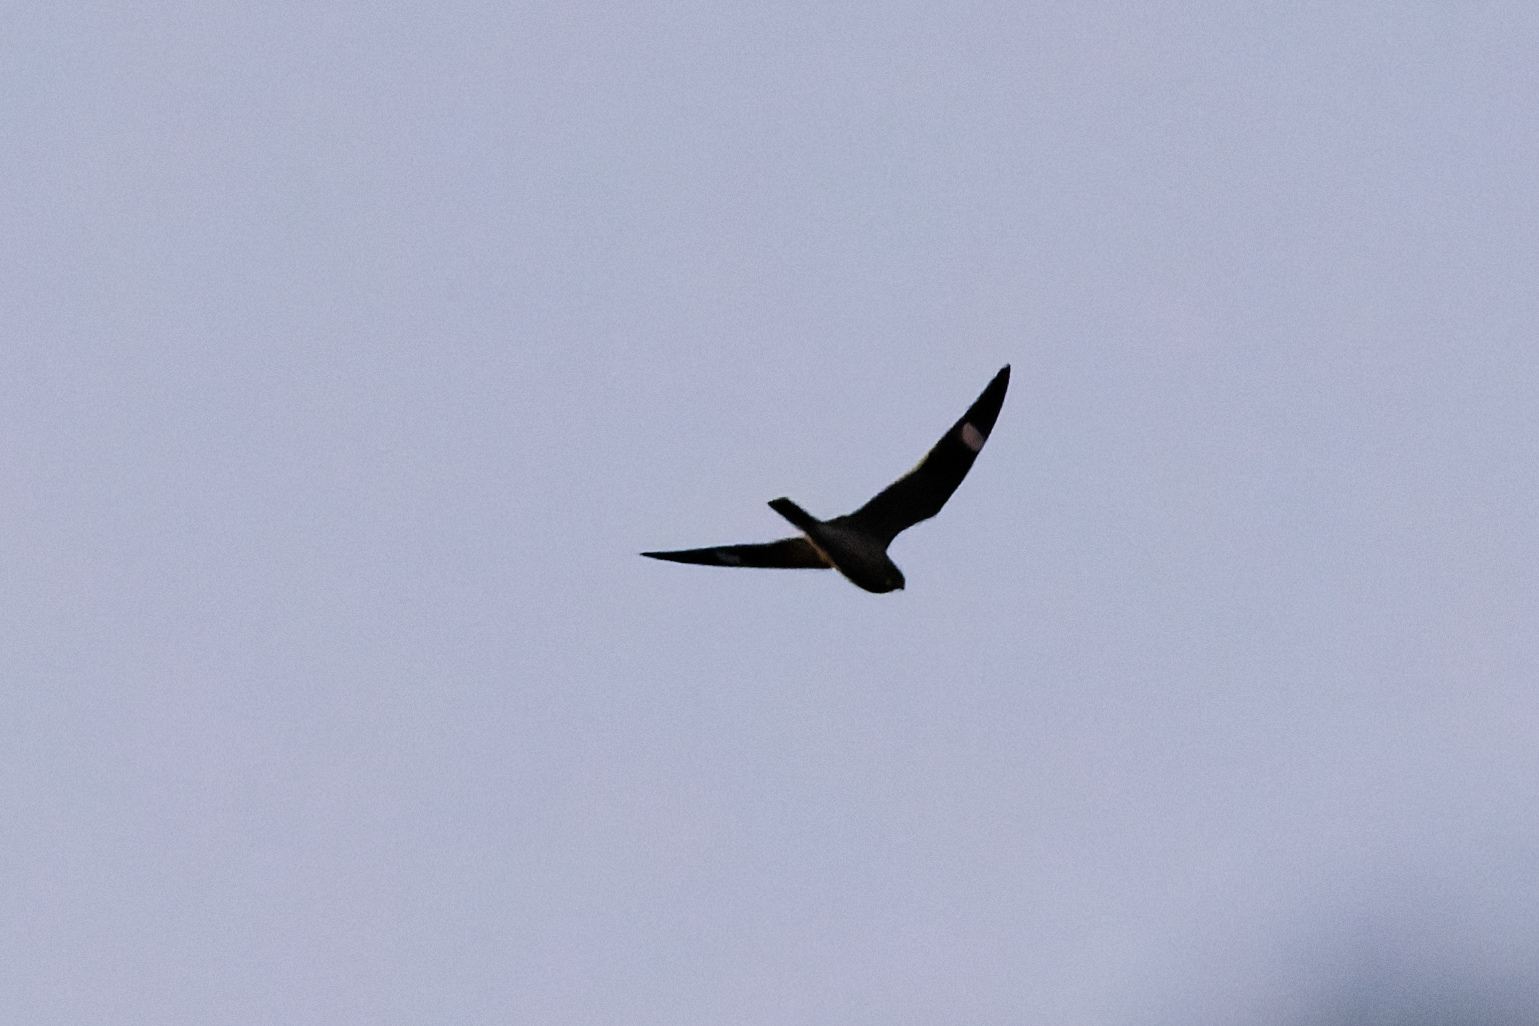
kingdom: Animalia
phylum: Chordata
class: Aves
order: Caprimulgiformes
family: Caprimulgidae
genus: Chordeiles
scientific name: Chordeiles minor
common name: Common nighthawk
